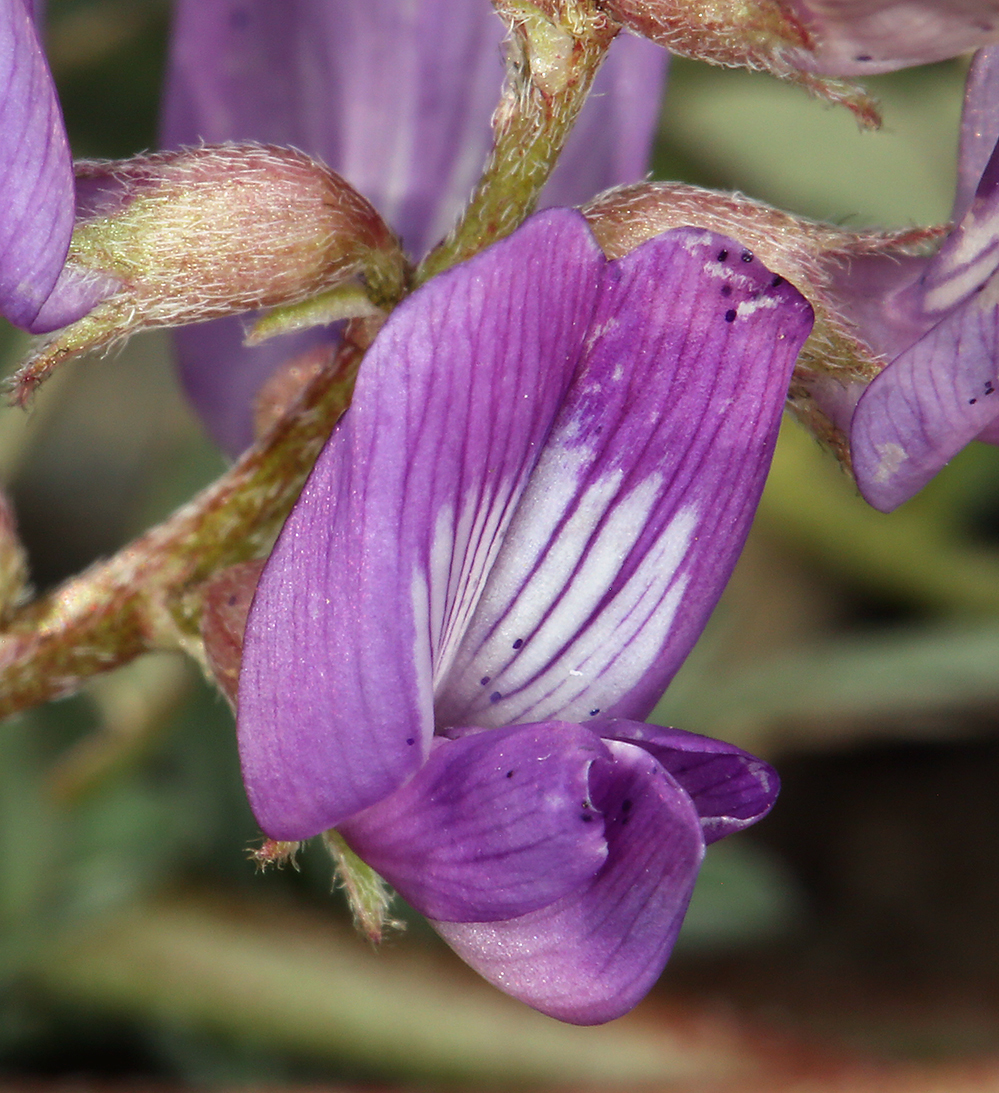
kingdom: Plantae
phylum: Tracheophyta
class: Magnoliopsida
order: Fabales
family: Fabaceae
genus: Astragalus
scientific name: Astragalus inyoensis
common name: Inyo locoweed
